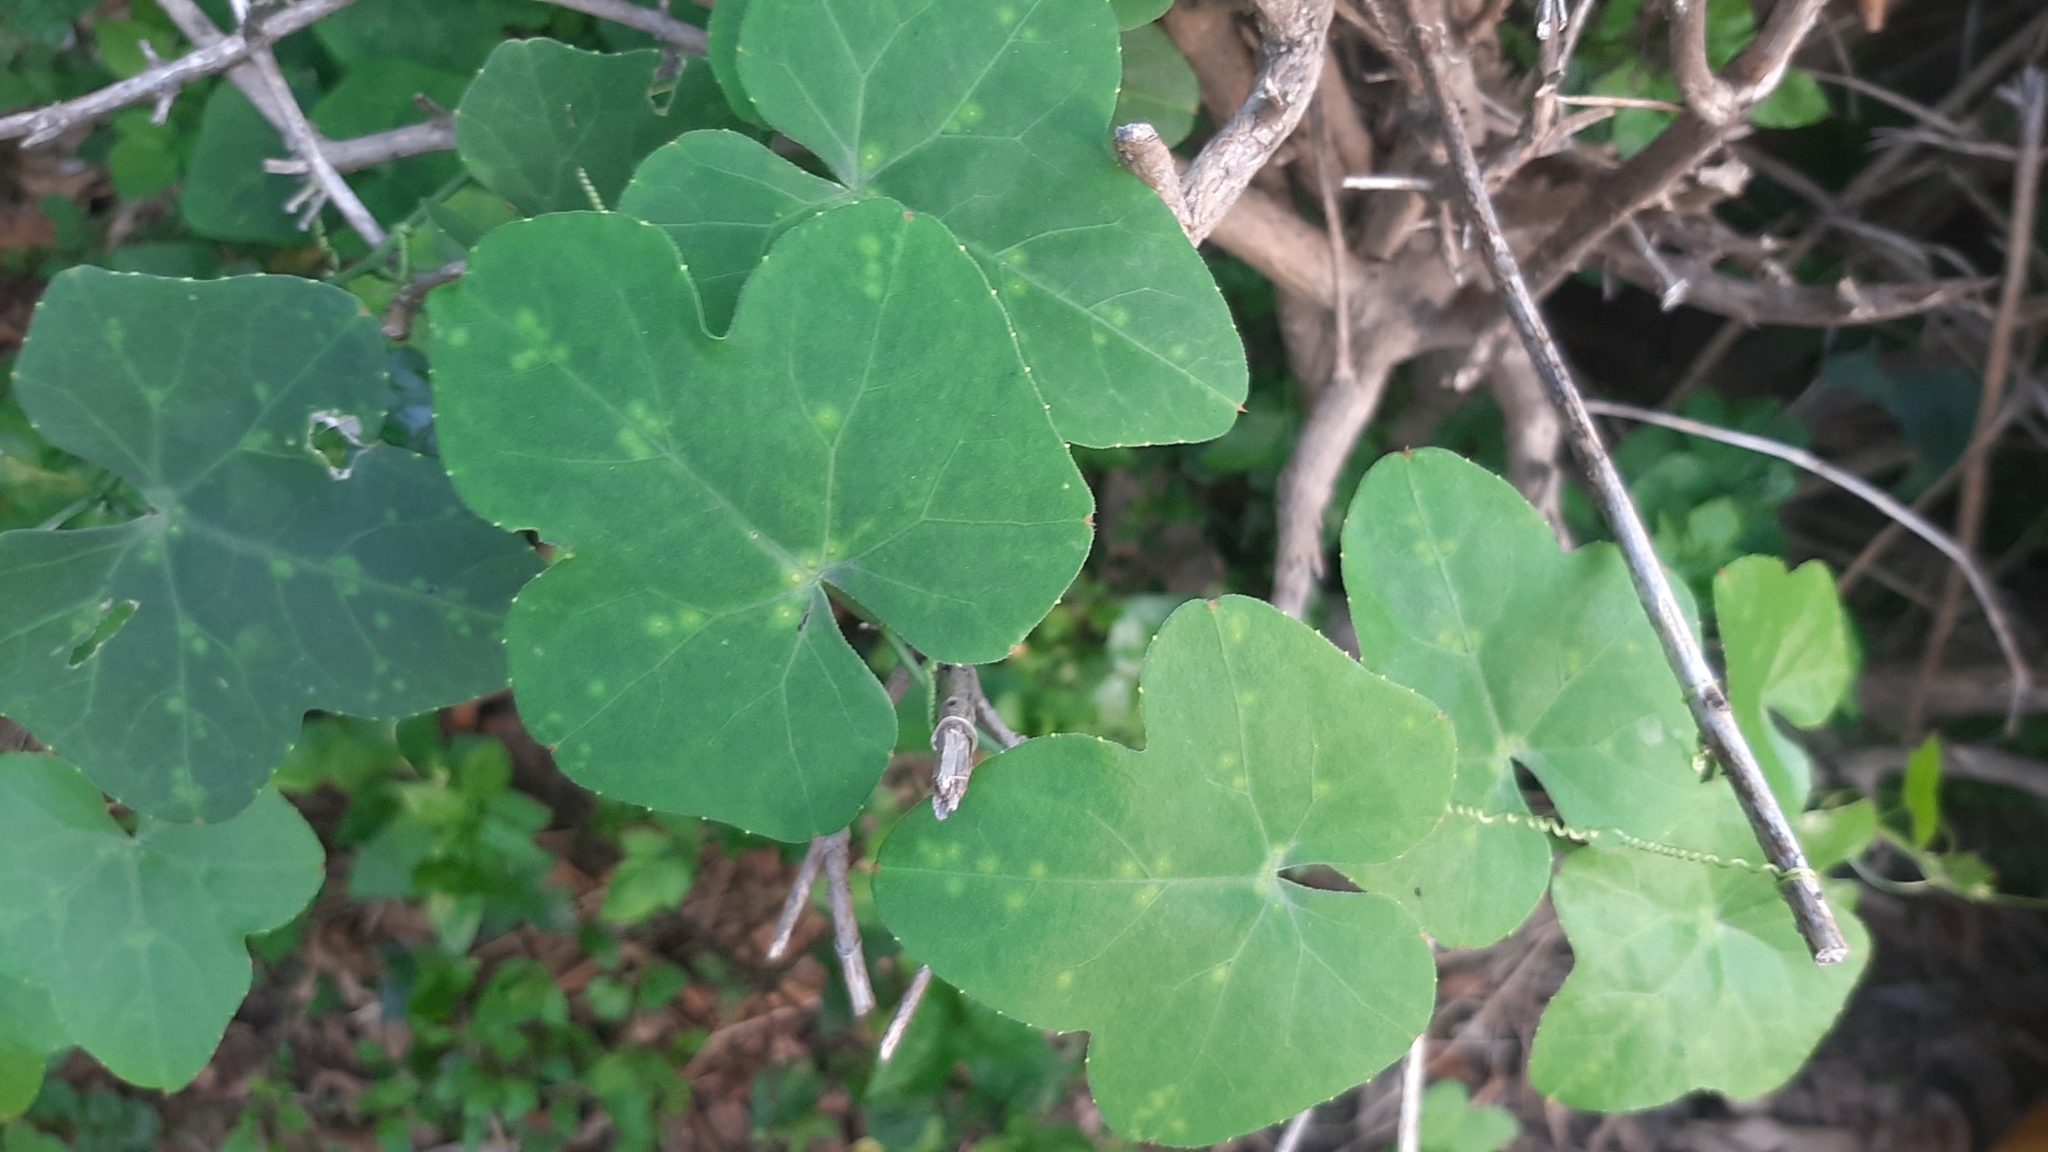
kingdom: Plantae
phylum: Tracheophyta
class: Magnoliopsida
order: Cucurbitales
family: Cucurbitaceae
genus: Coccinia
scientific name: Coccinia grandis
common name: Ivy gourd
